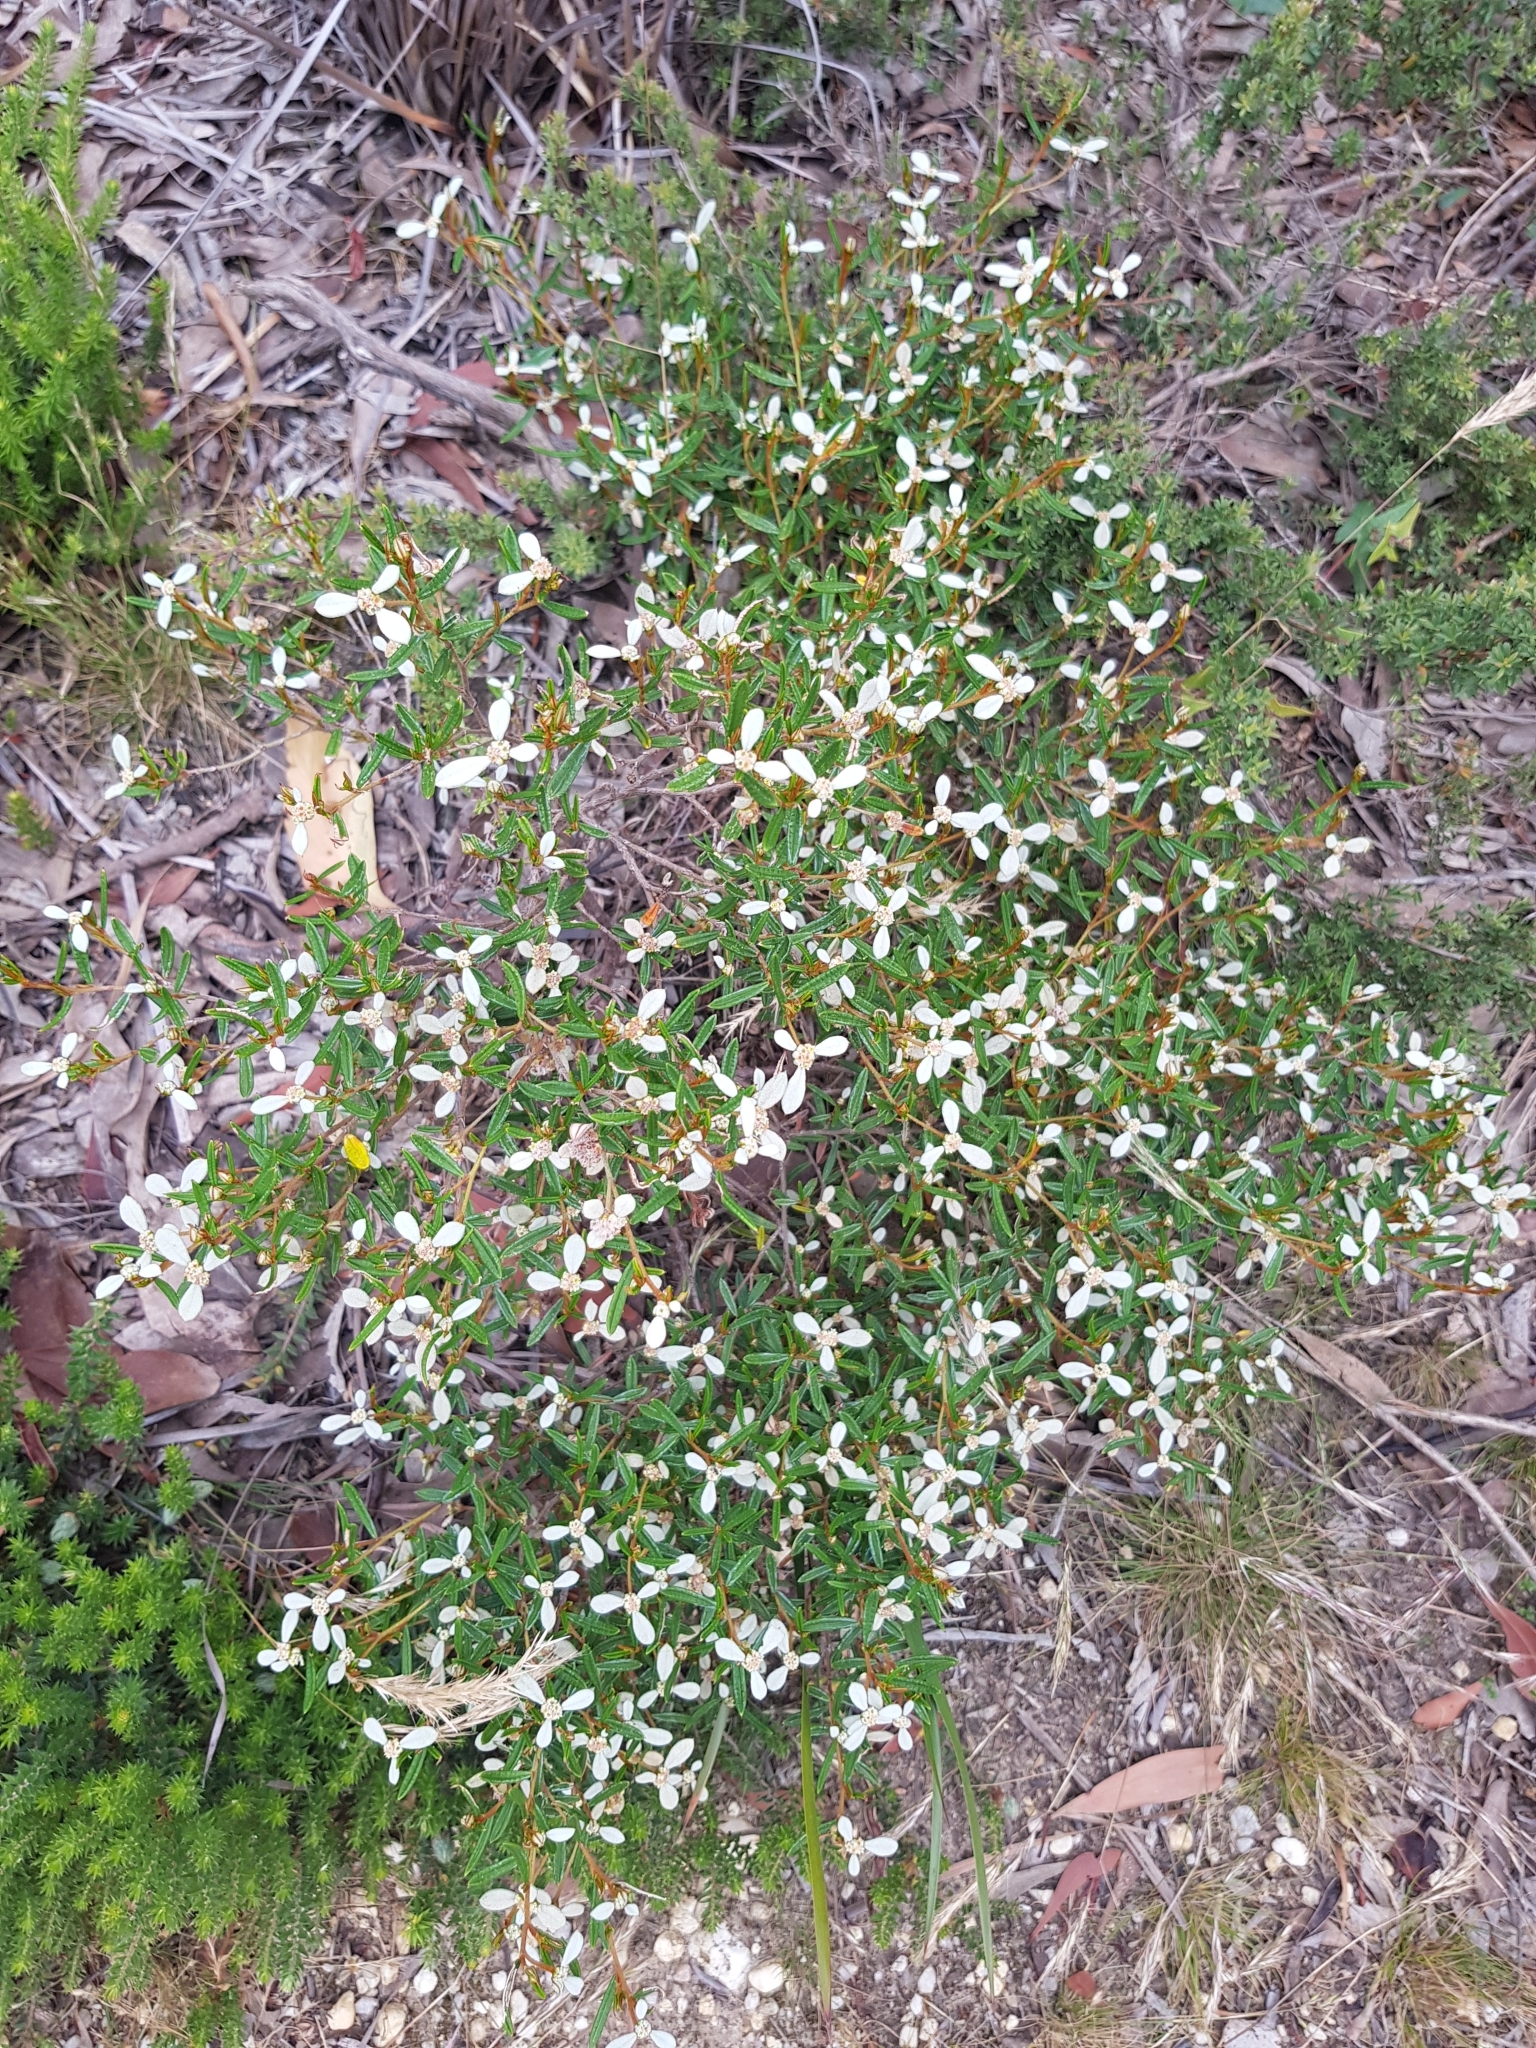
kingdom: Plantae
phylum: Tracheophyta
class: Magnoliopsida
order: Rosales
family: Rhamnaceae
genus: Spyridium
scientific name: Spyridium vexilliferum
